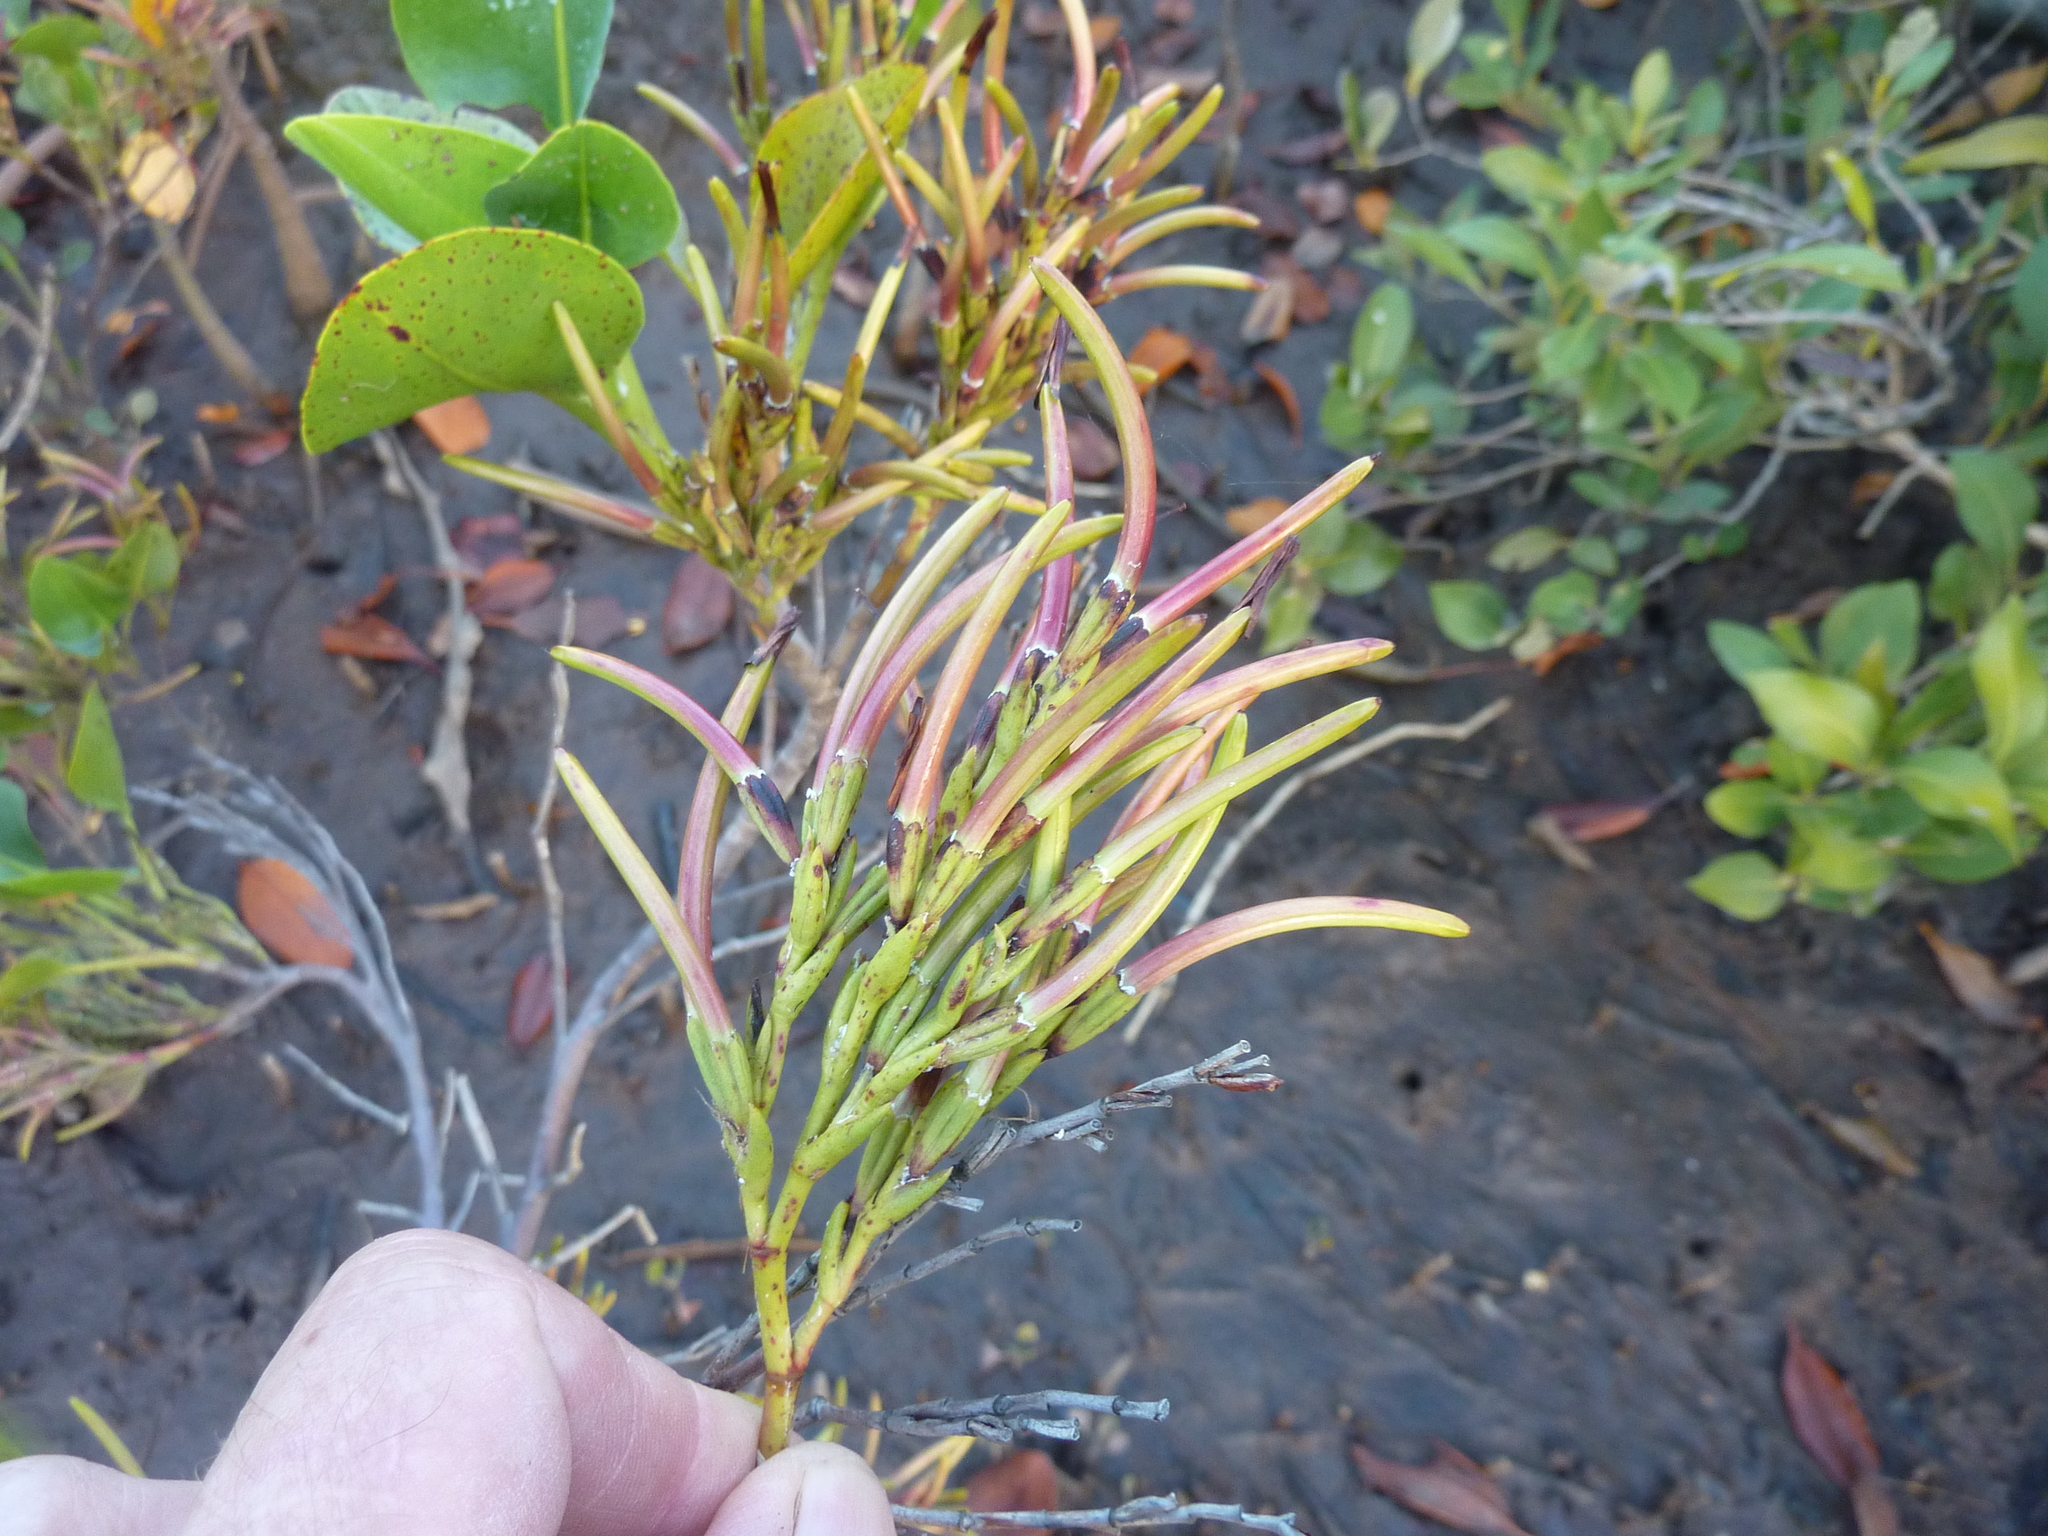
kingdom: Plantae
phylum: Tracheophyta
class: Magnoliopsida
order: Caryophyllales
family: Plumbaginaceae
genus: Aegialitis
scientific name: Aegialitis annulata
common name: Club mangrove
